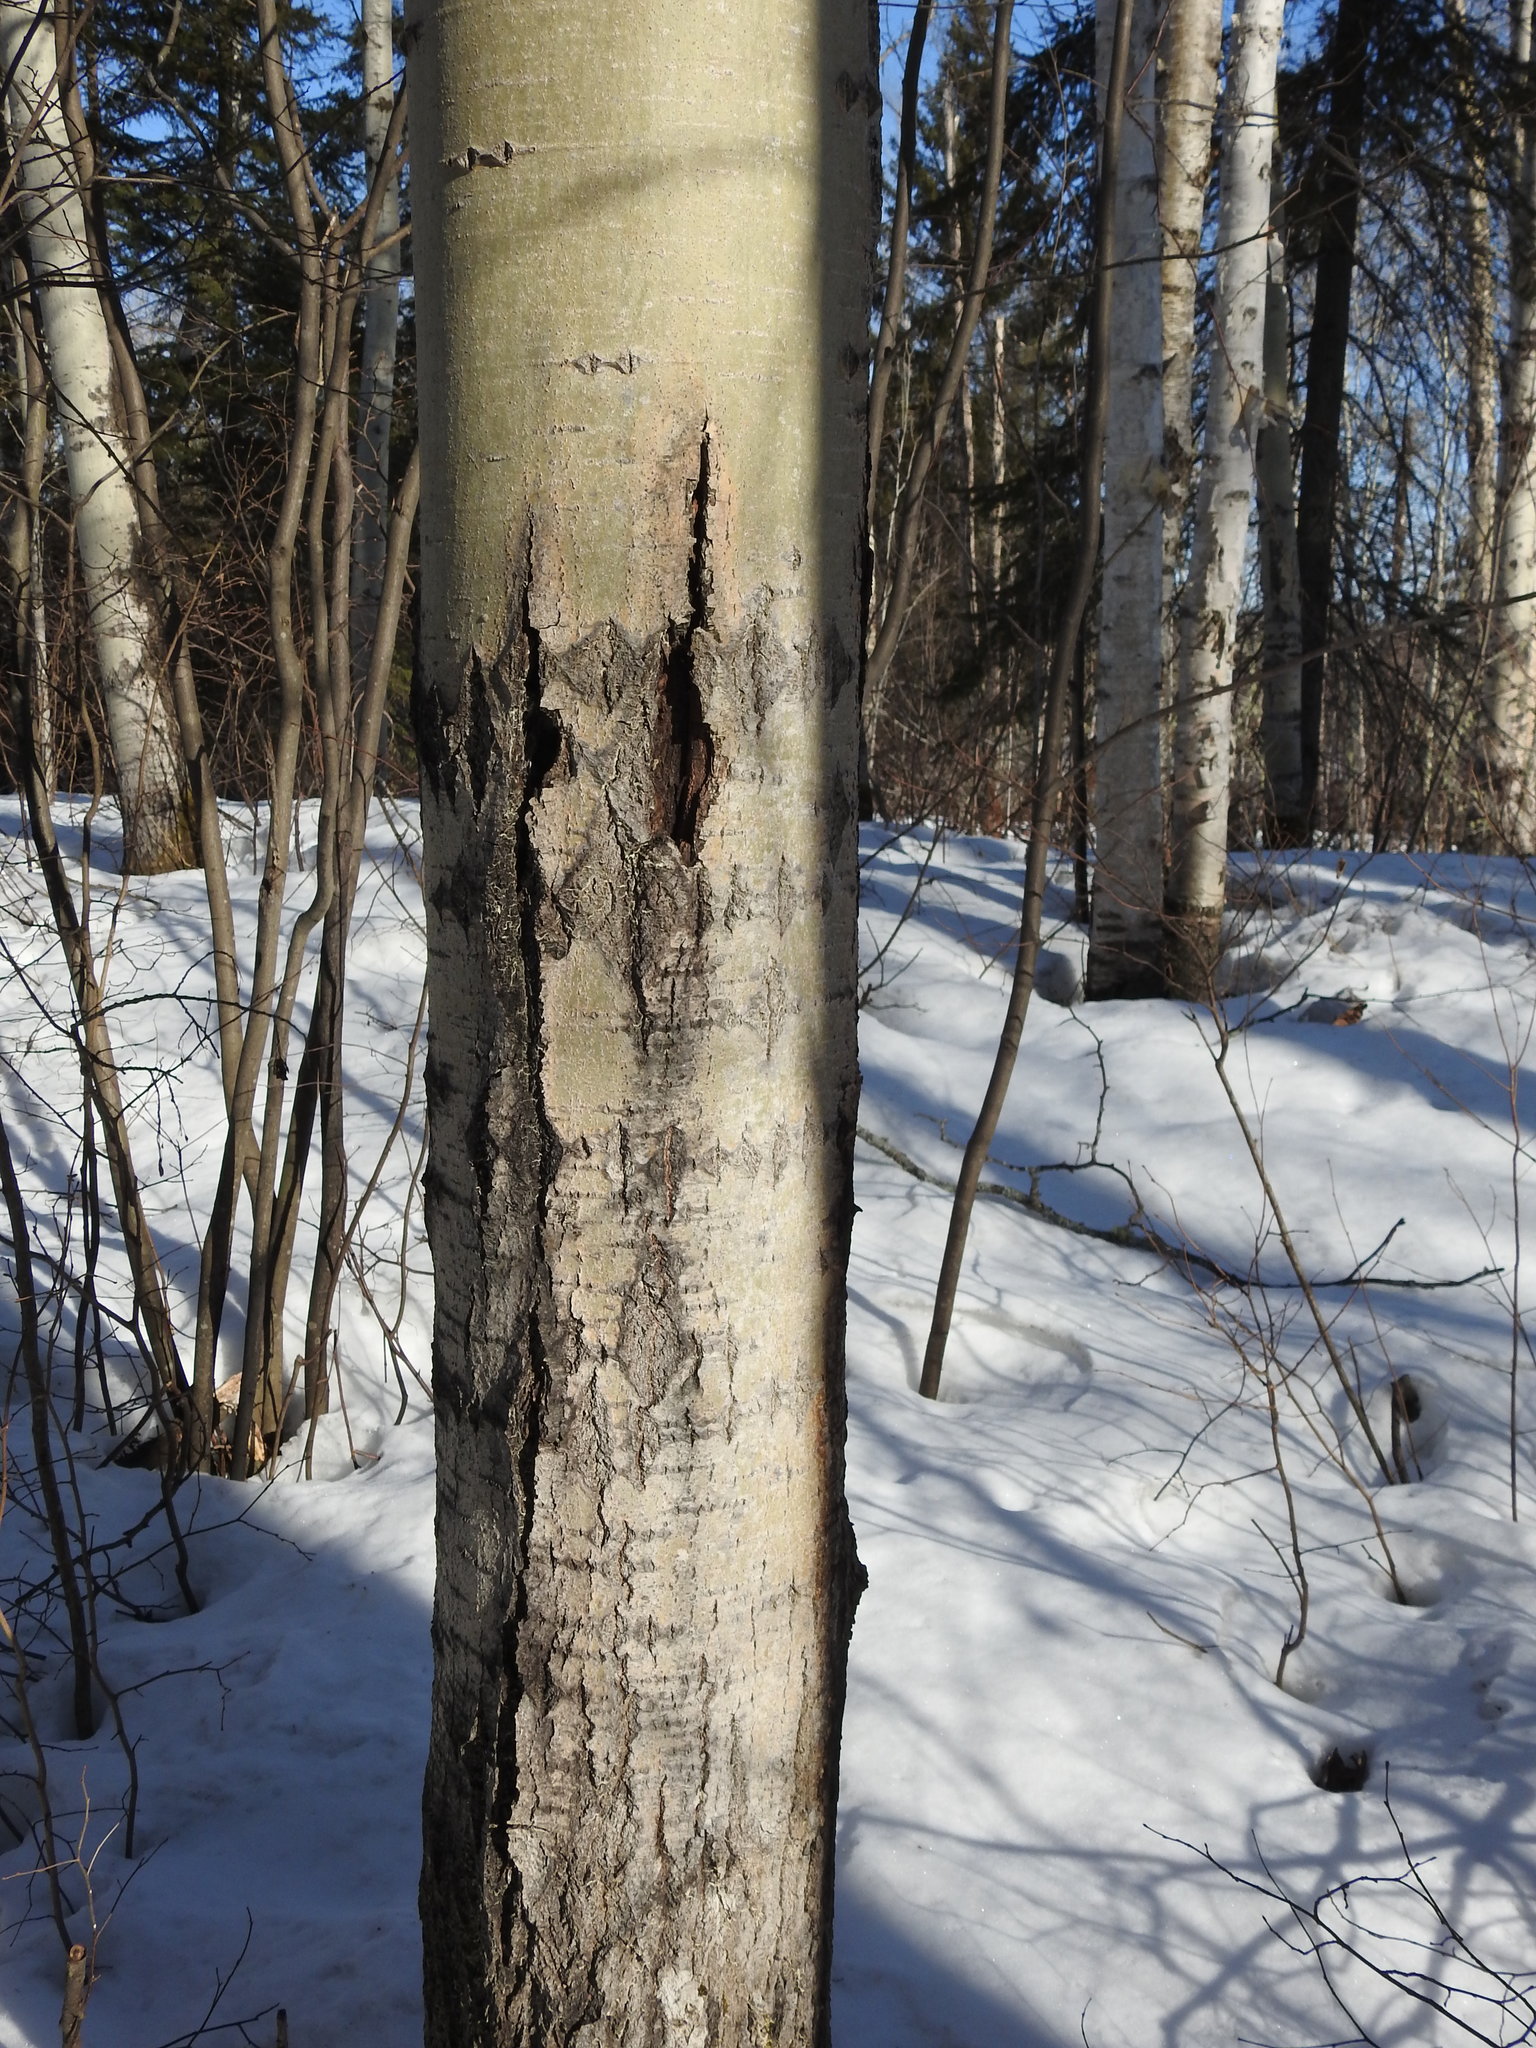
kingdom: Plantae
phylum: Tracheophyta
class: Magnoliopsida
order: Malpighiales
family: Salicaceae
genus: Populus
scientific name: Populus tremuloides
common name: Quaking aspen
